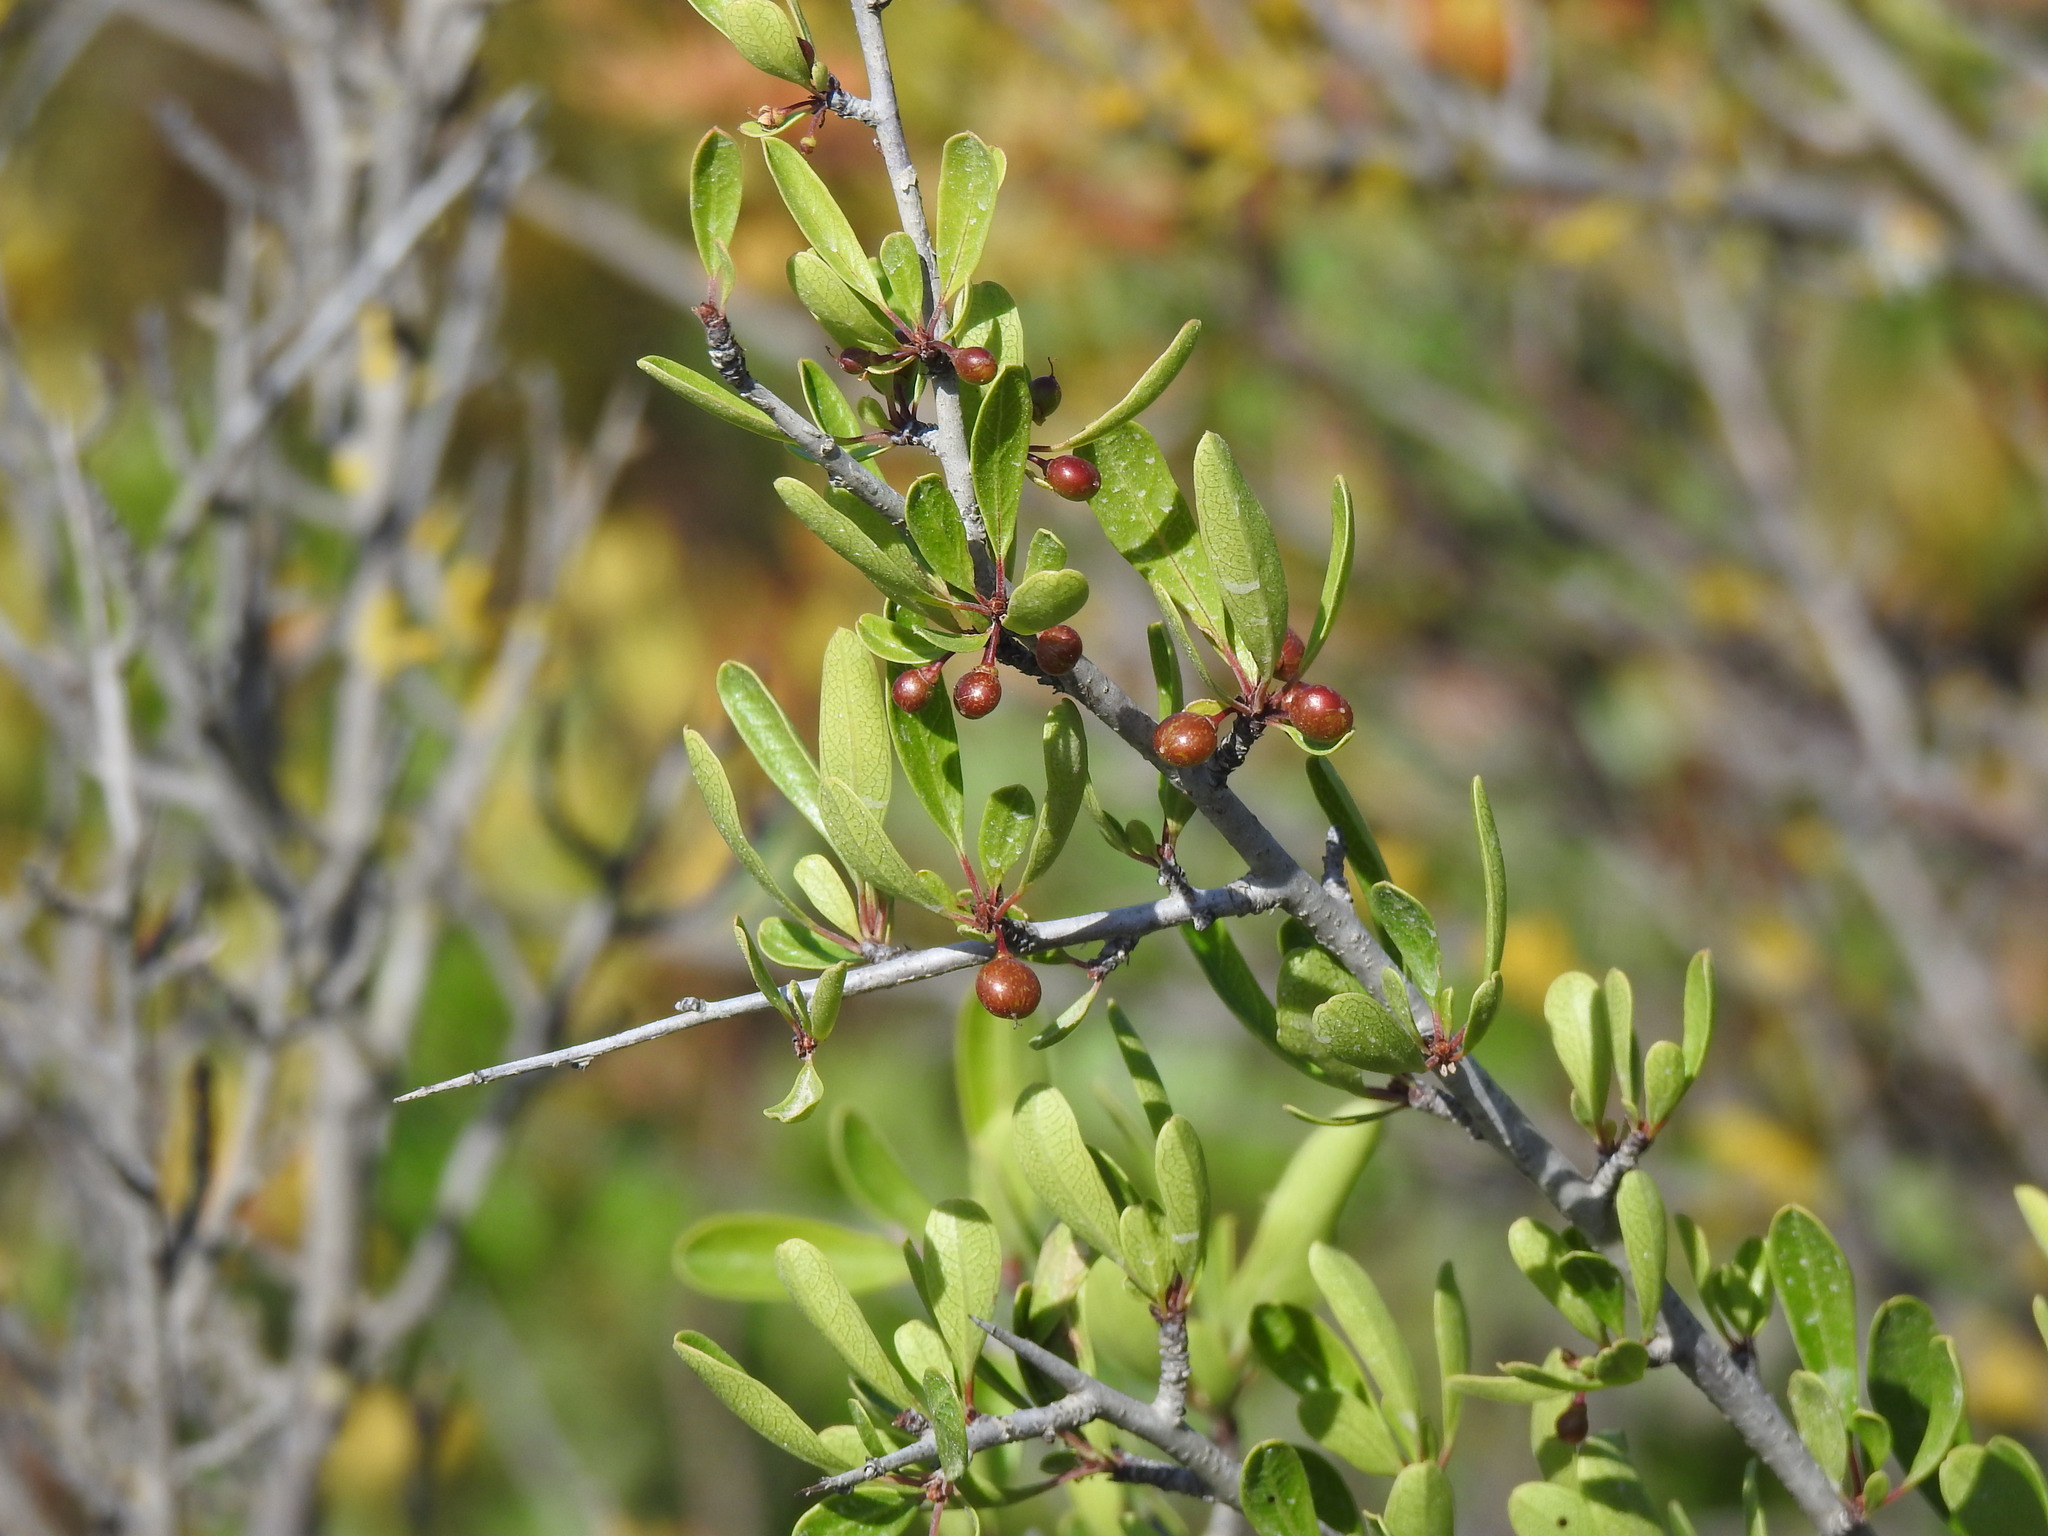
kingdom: Plantae
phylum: Tracheophyta
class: Magnoliopsida
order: Rosales
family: Rhamnaceae
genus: Rhamnus
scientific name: Rhamnus oleoides
